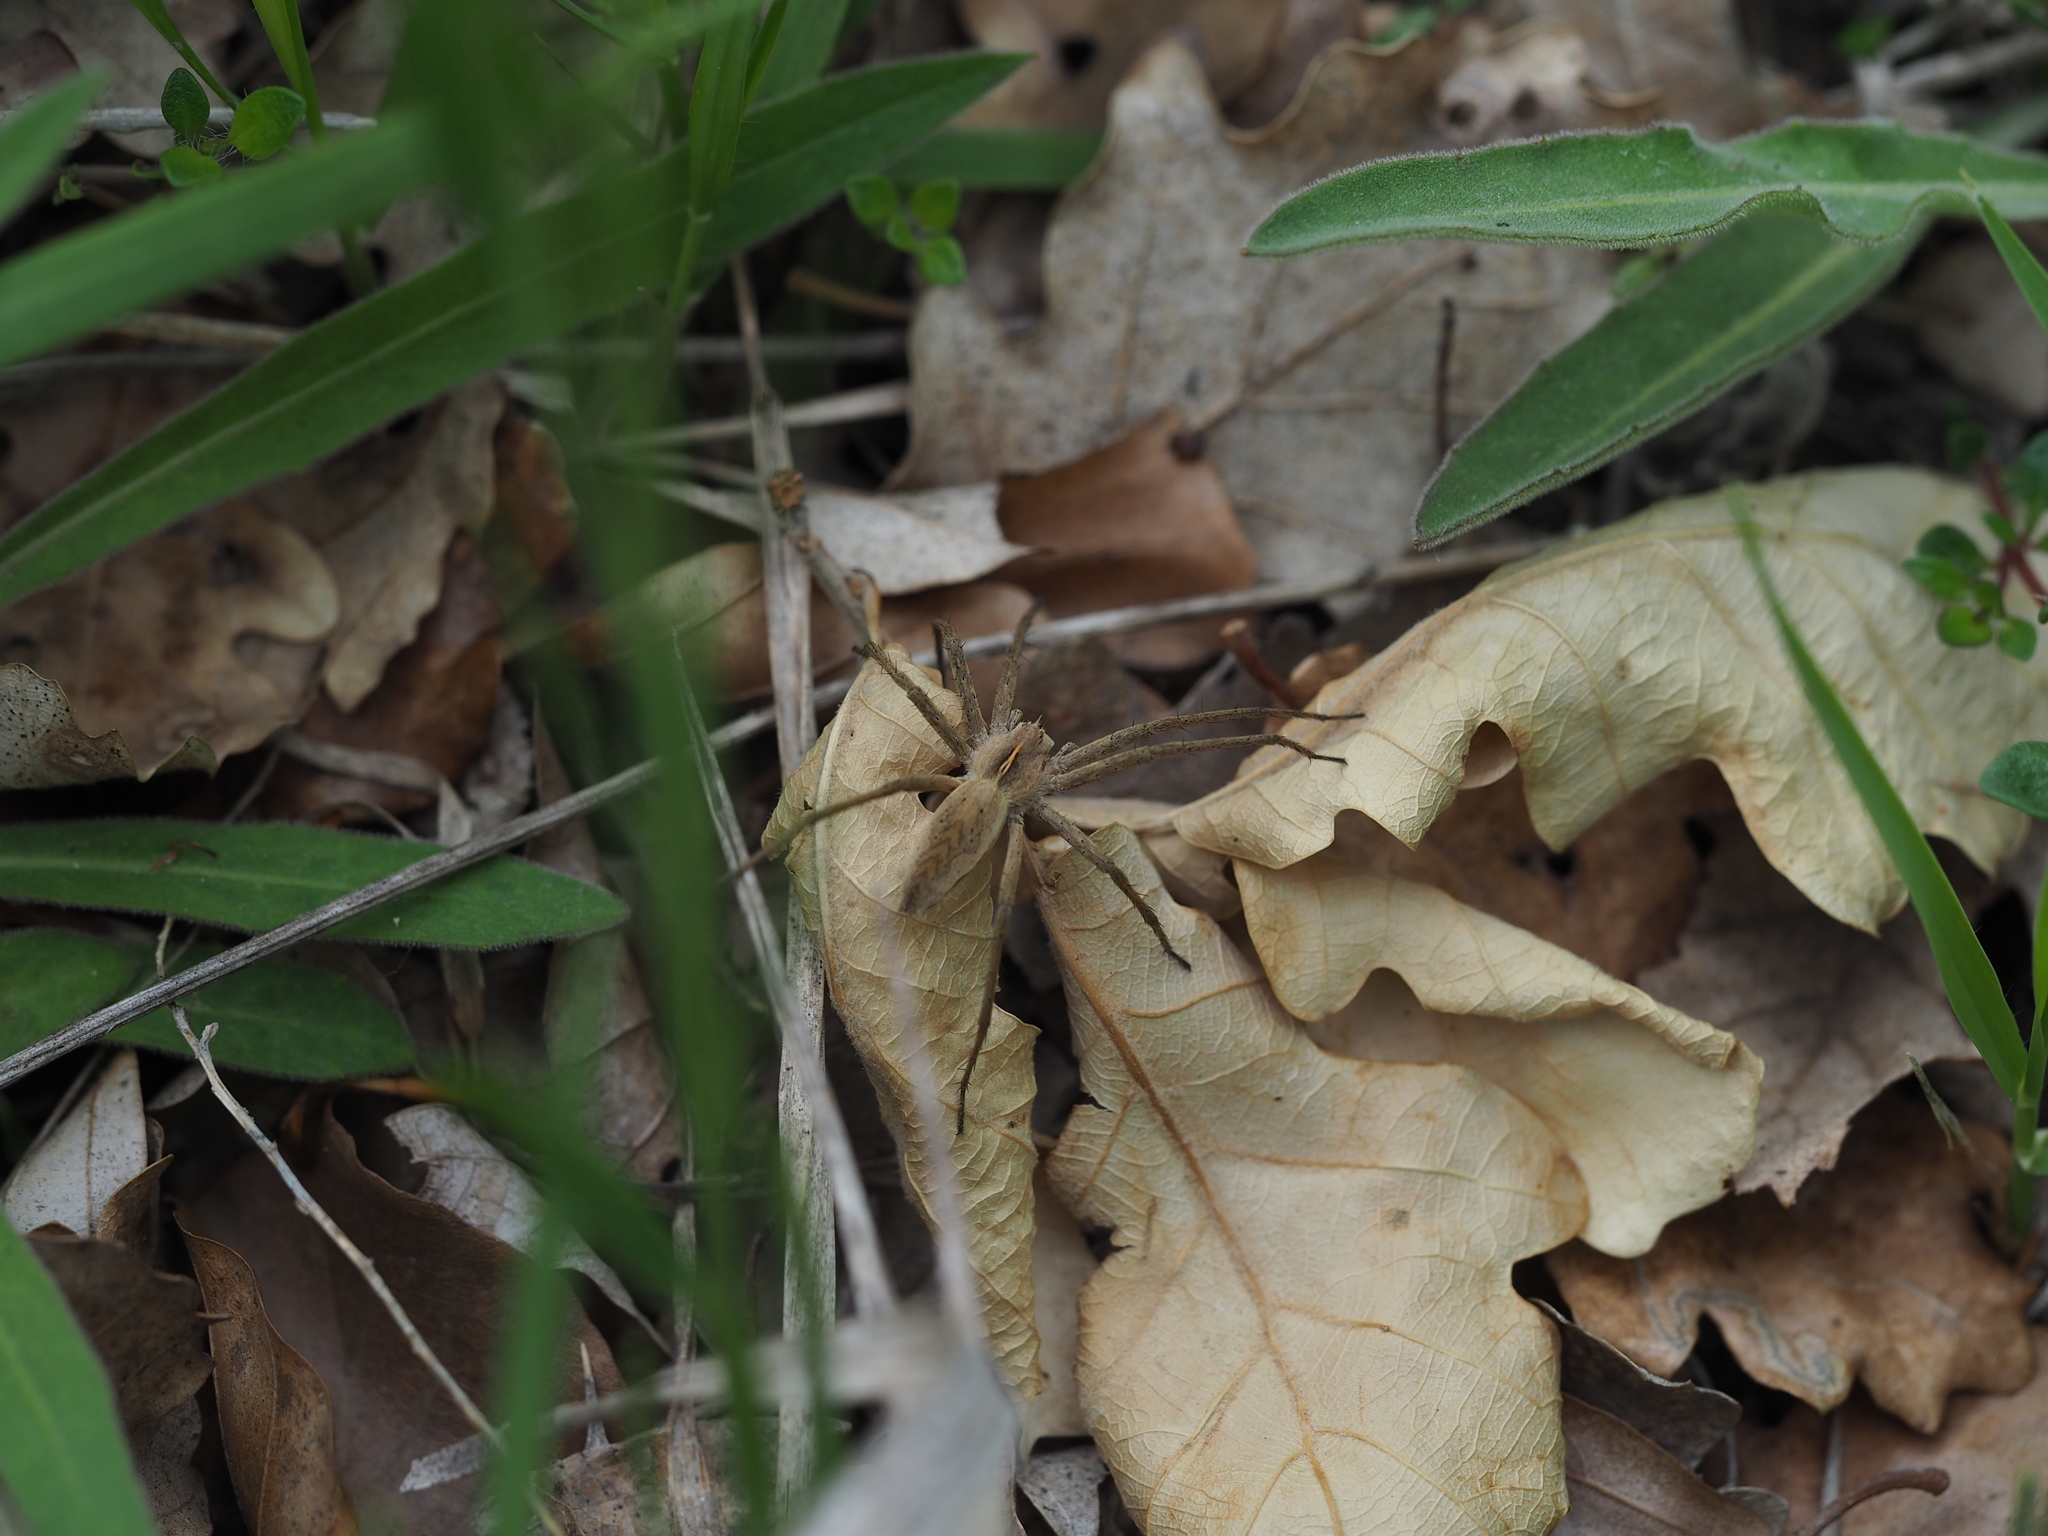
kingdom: Animalia
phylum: Arthropoda
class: Arachnida
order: Araneae
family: Pisauridae
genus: Pisaura
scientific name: Pisaura mirabilis
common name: Tent spider
